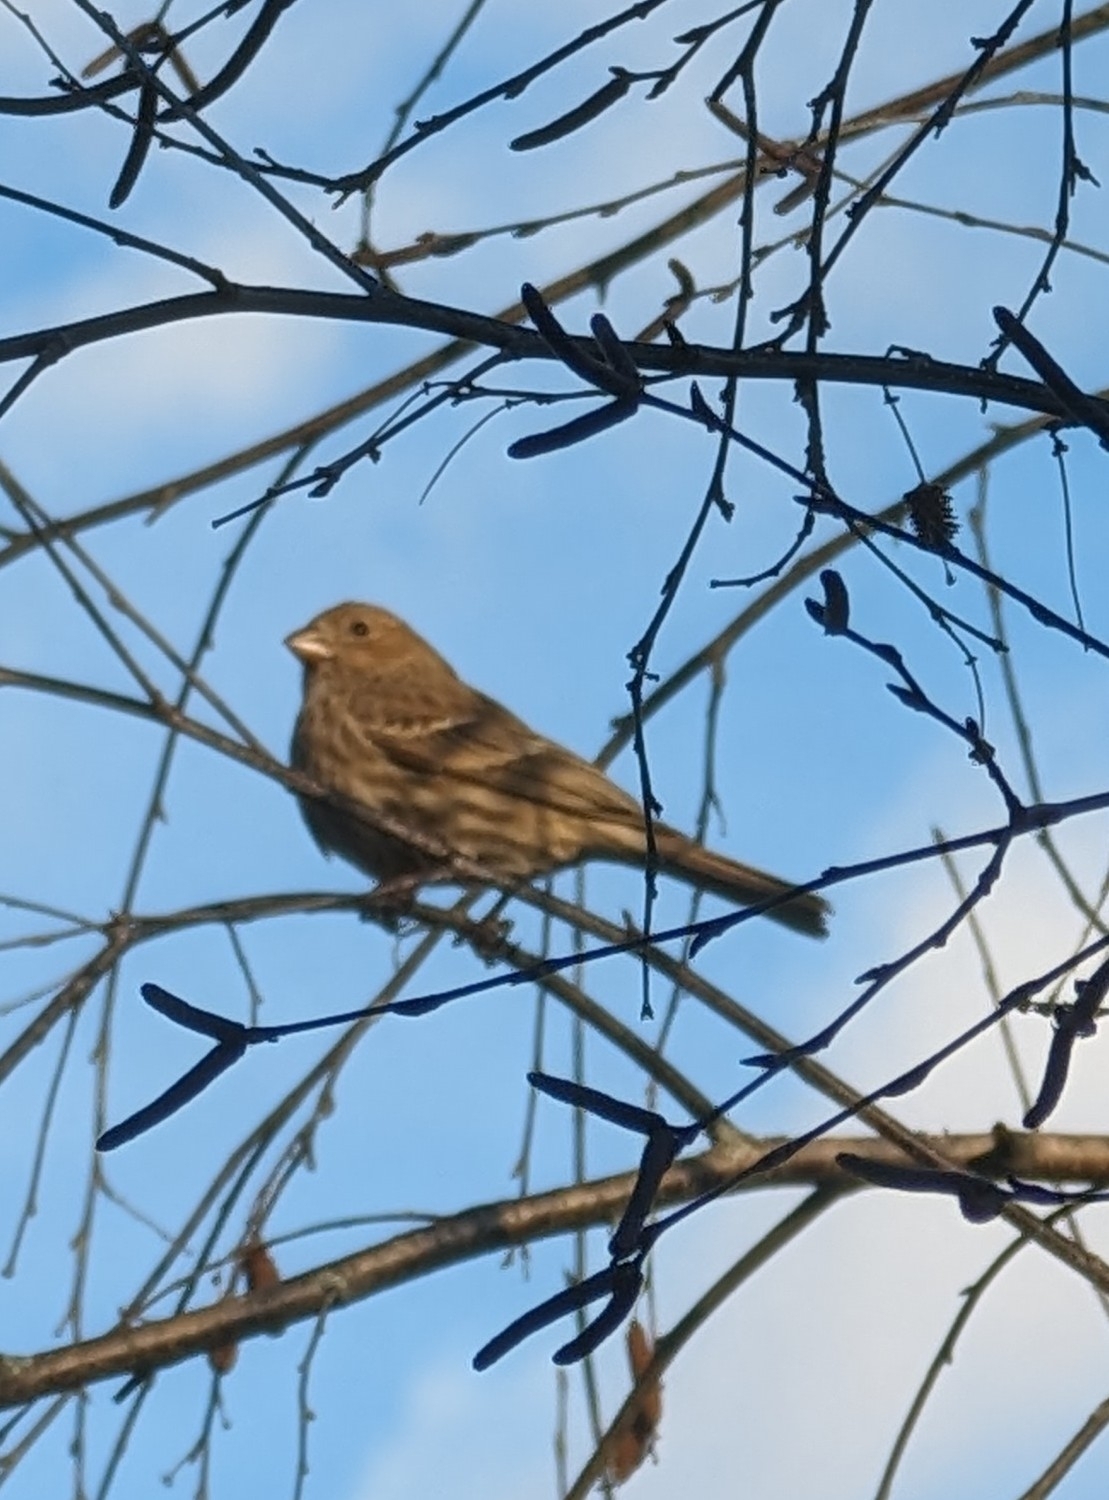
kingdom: Animalia
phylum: Chordata
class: Aves
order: Passeriformes
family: Fringillidae
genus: Haemorhous
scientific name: Haemorhous mexicanus
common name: House finch
